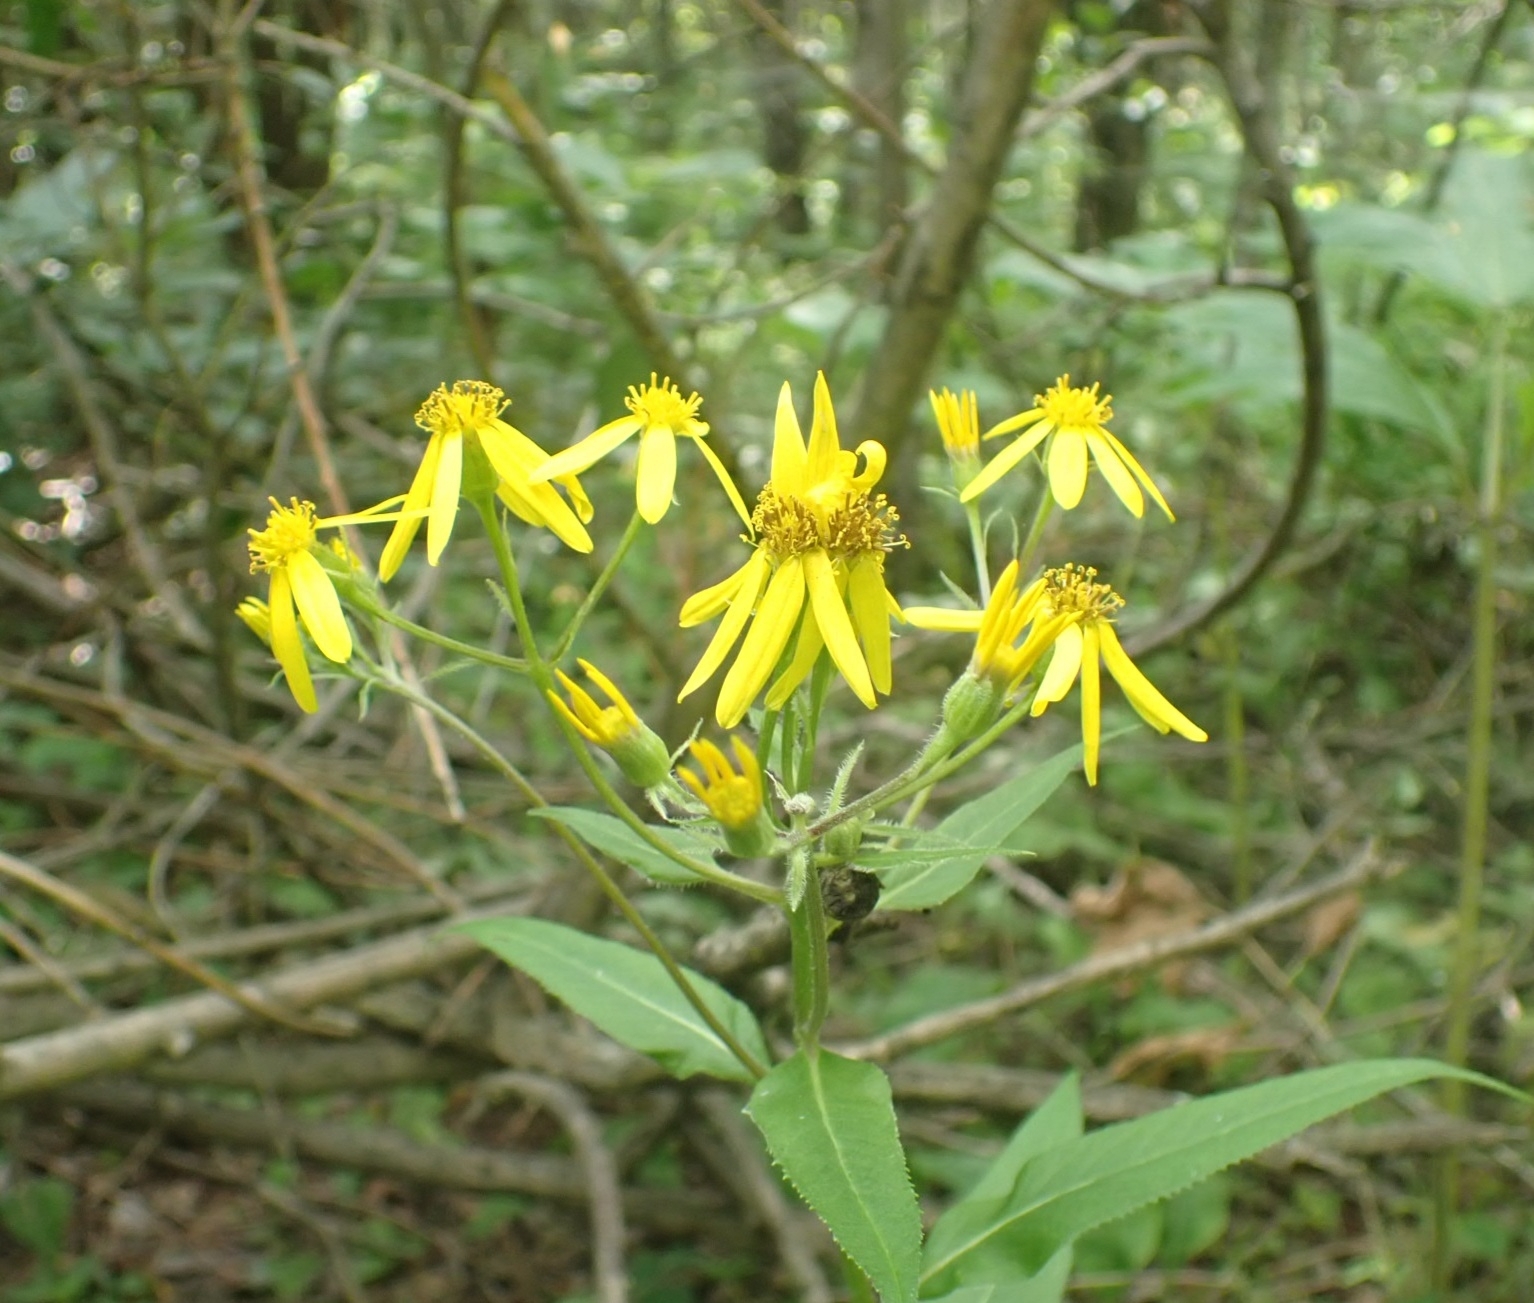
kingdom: Plantae
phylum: Tracheophyta
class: Magnoliopsida
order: Asterales
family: Asteraceae
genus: Senecio
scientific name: Senecio nemorensis
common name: Alpine ragwort
